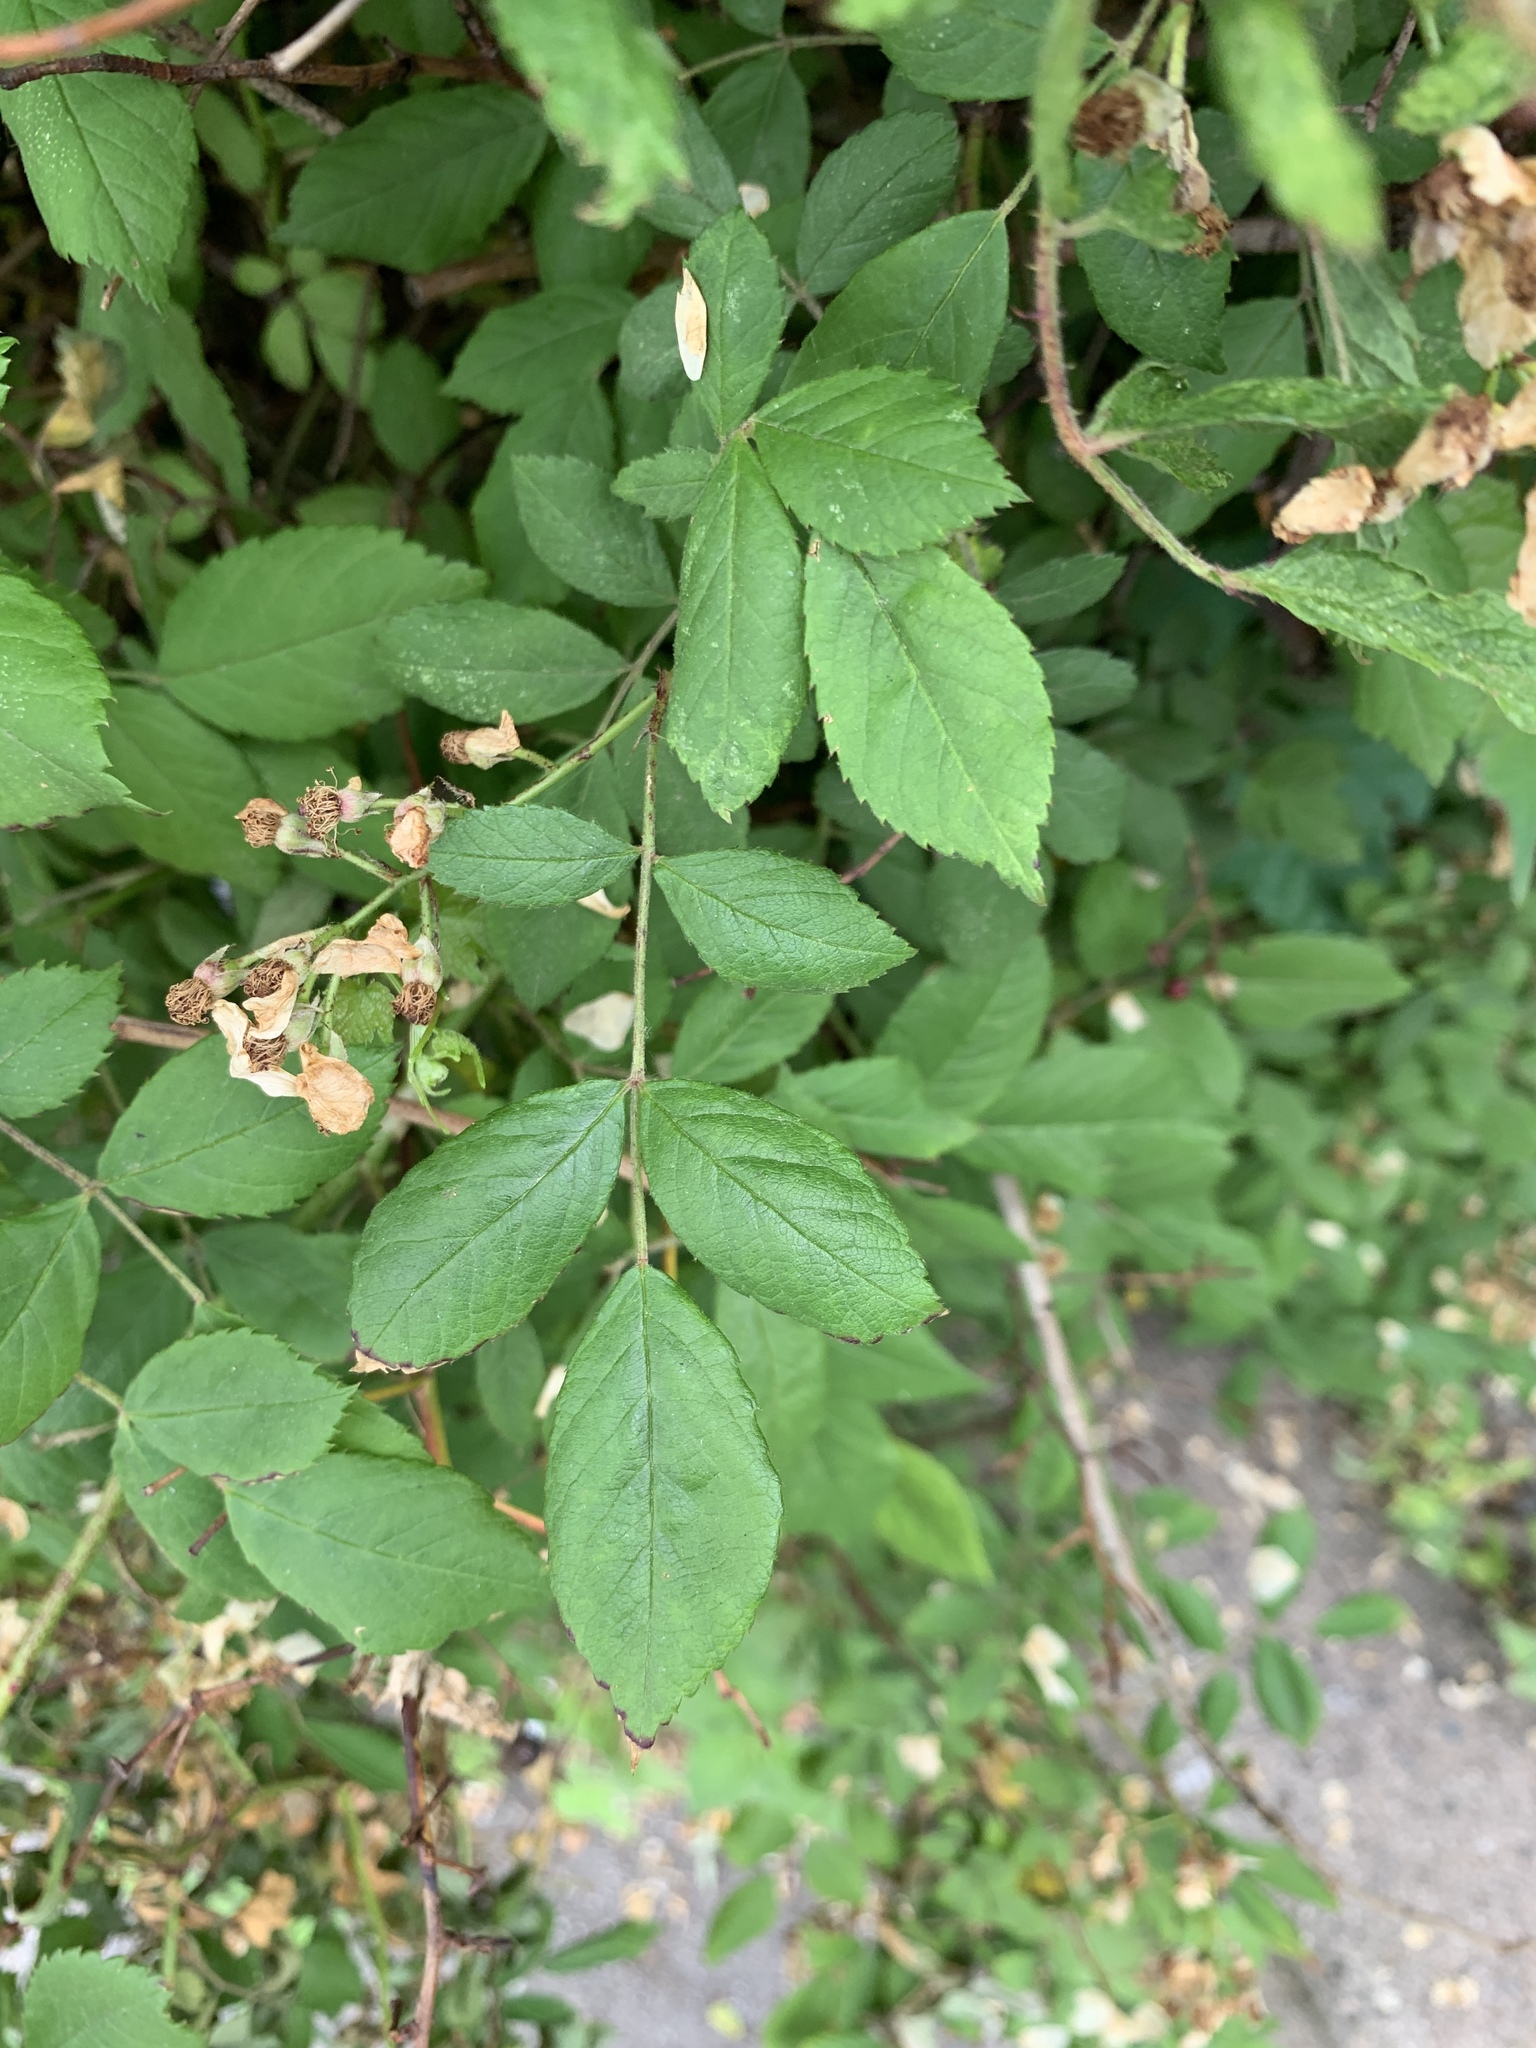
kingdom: Plantae
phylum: Tracheophyta
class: Magnoliopsida
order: Rosales
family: Rosaceae
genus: Rosa
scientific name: Rosa multiflora
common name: Multiflora rose
